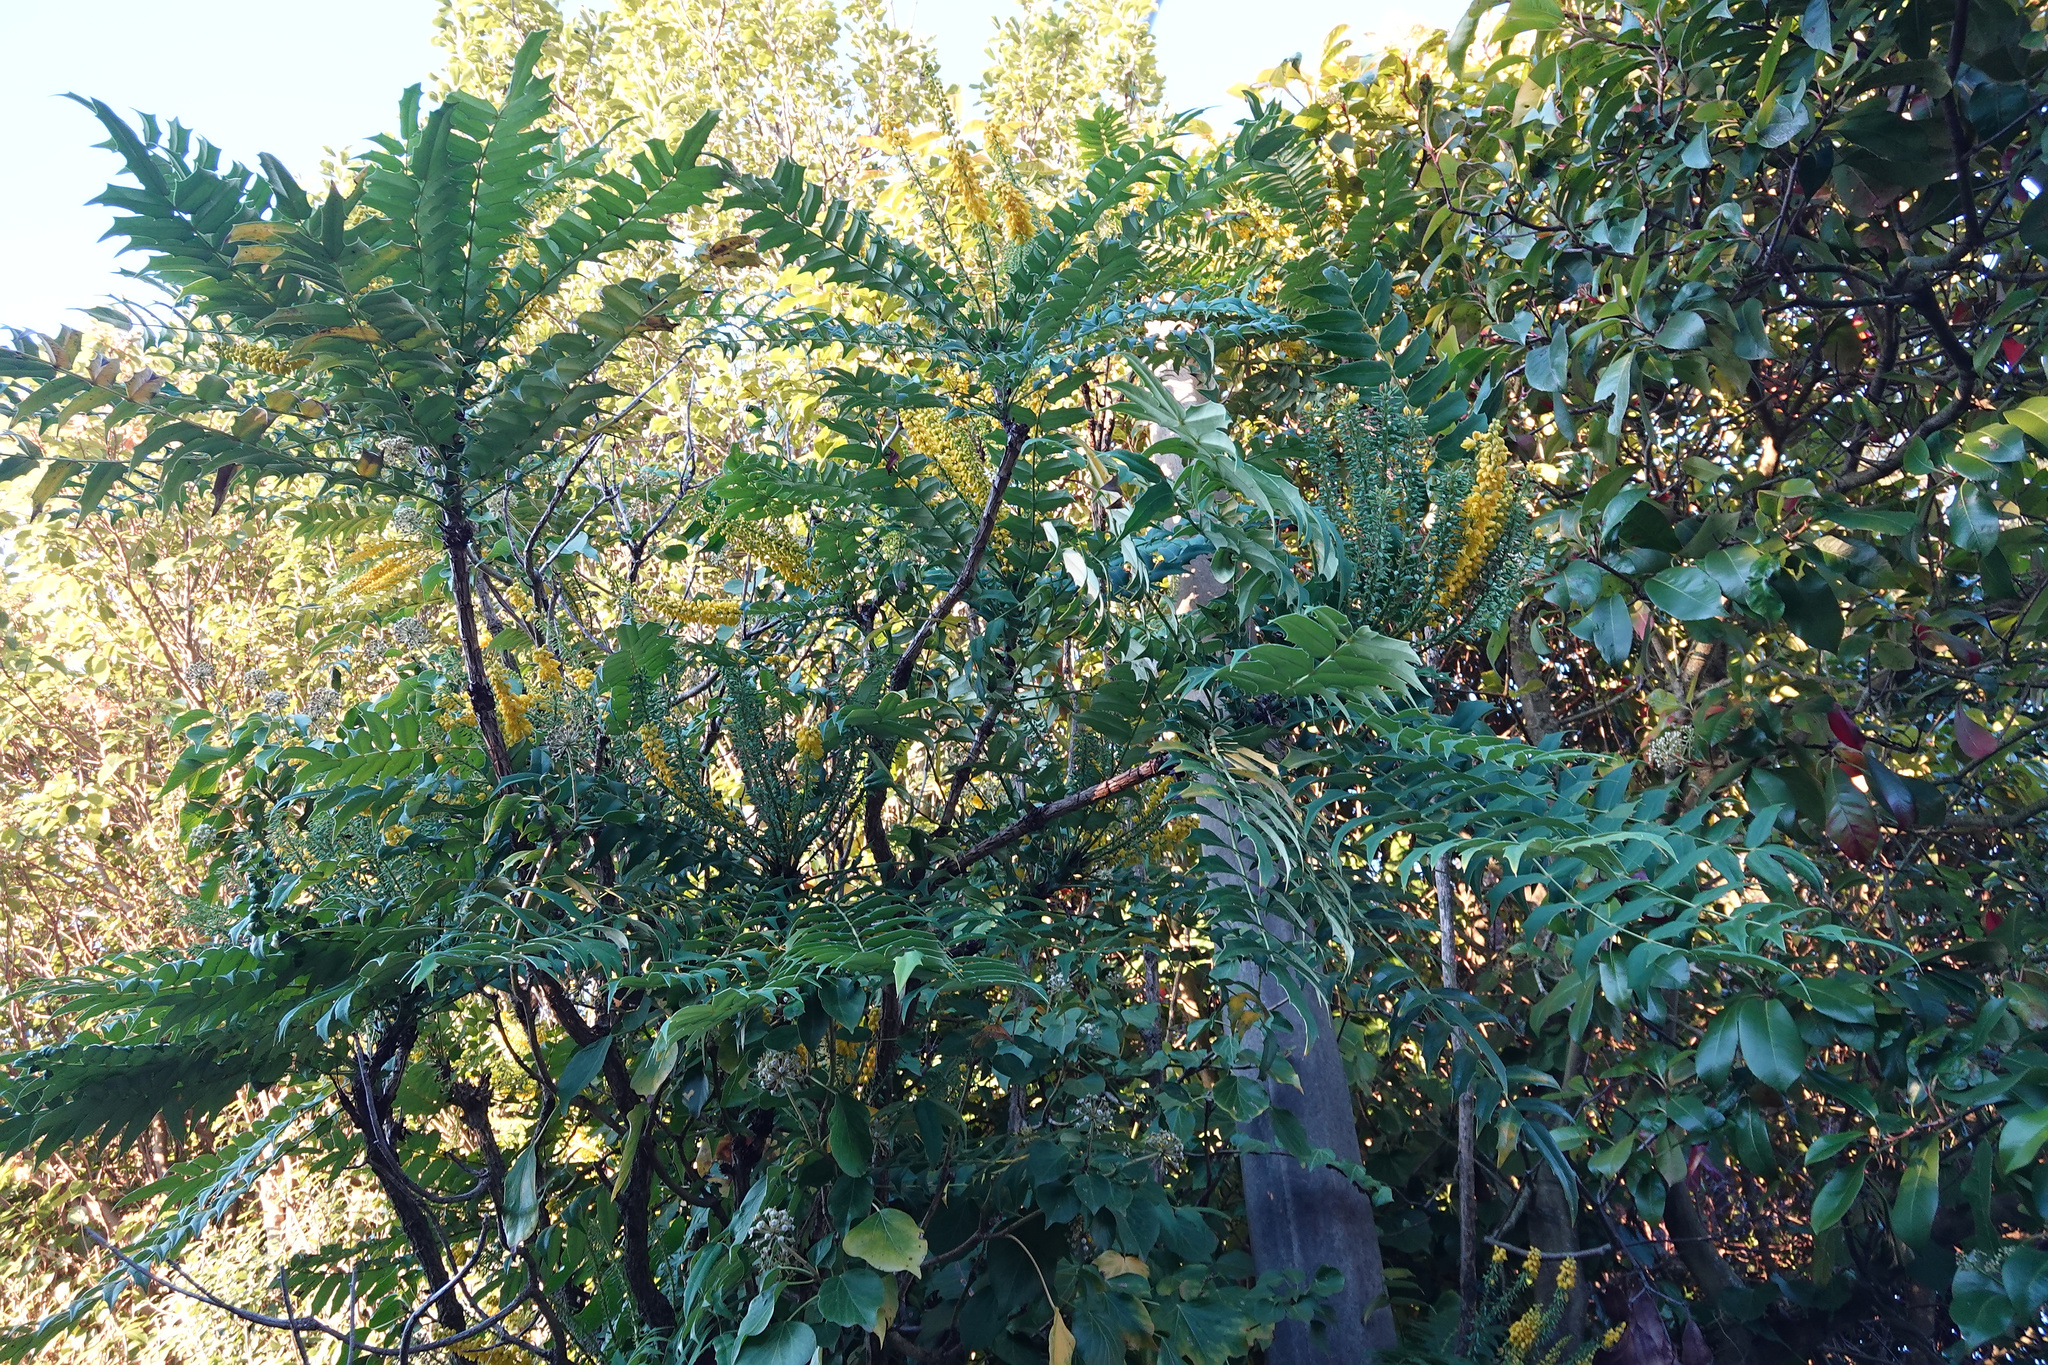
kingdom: Plantae
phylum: Tracheophyta
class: Magnoliopsida
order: Ranunculales
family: Berberidaceae
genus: Mahonia
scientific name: Mahonia oiwakensis
